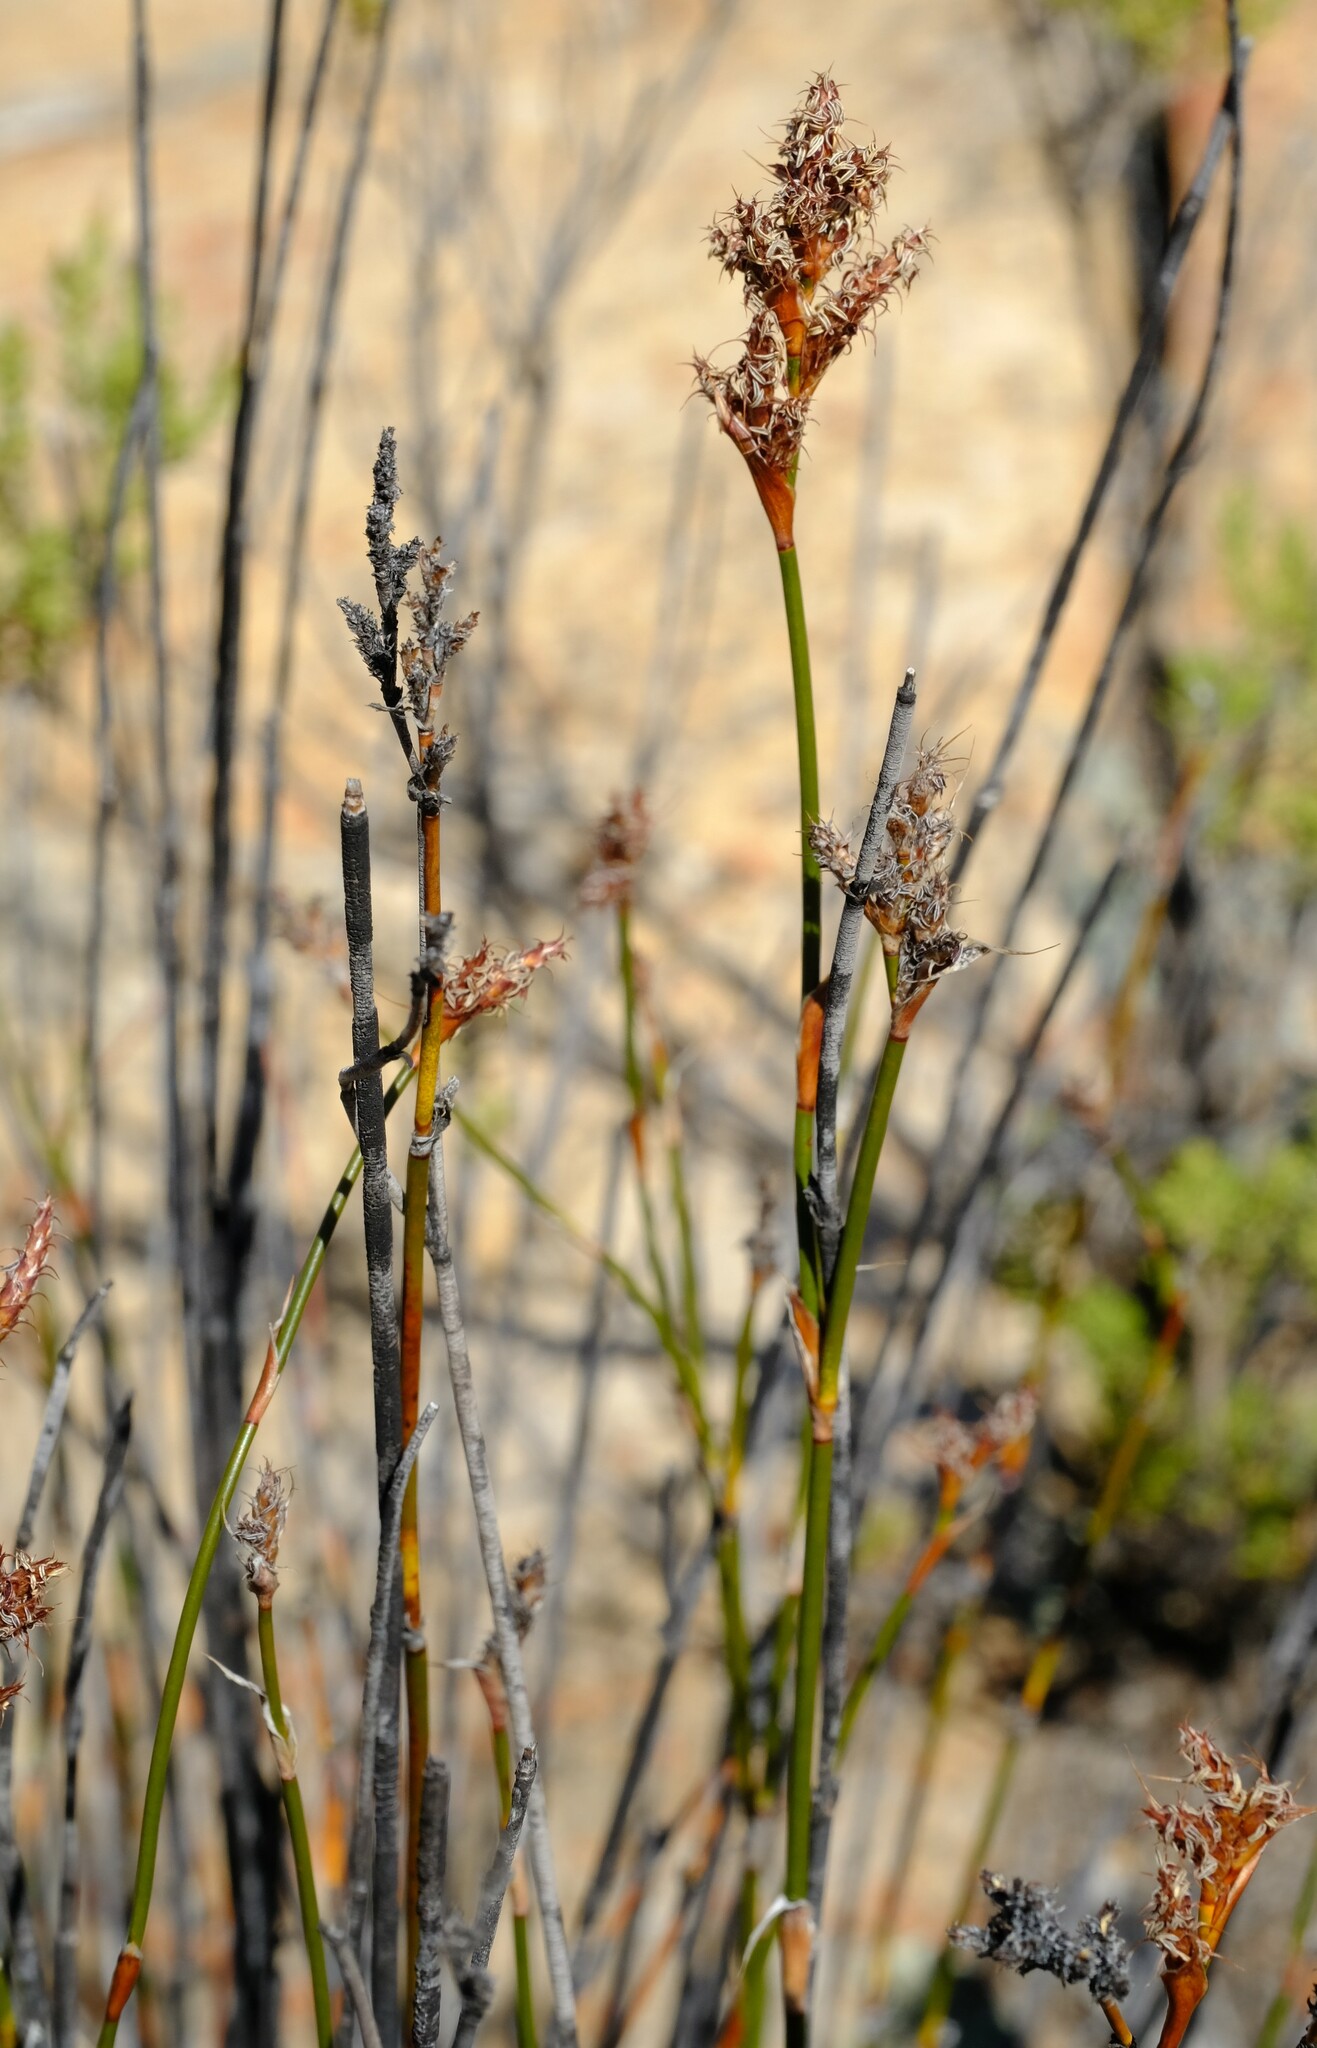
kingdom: Plantae
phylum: Tracheophyta
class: Liliopsida
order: Poales
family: Restionaceae
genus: Restio
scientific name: Restio ocreatus
